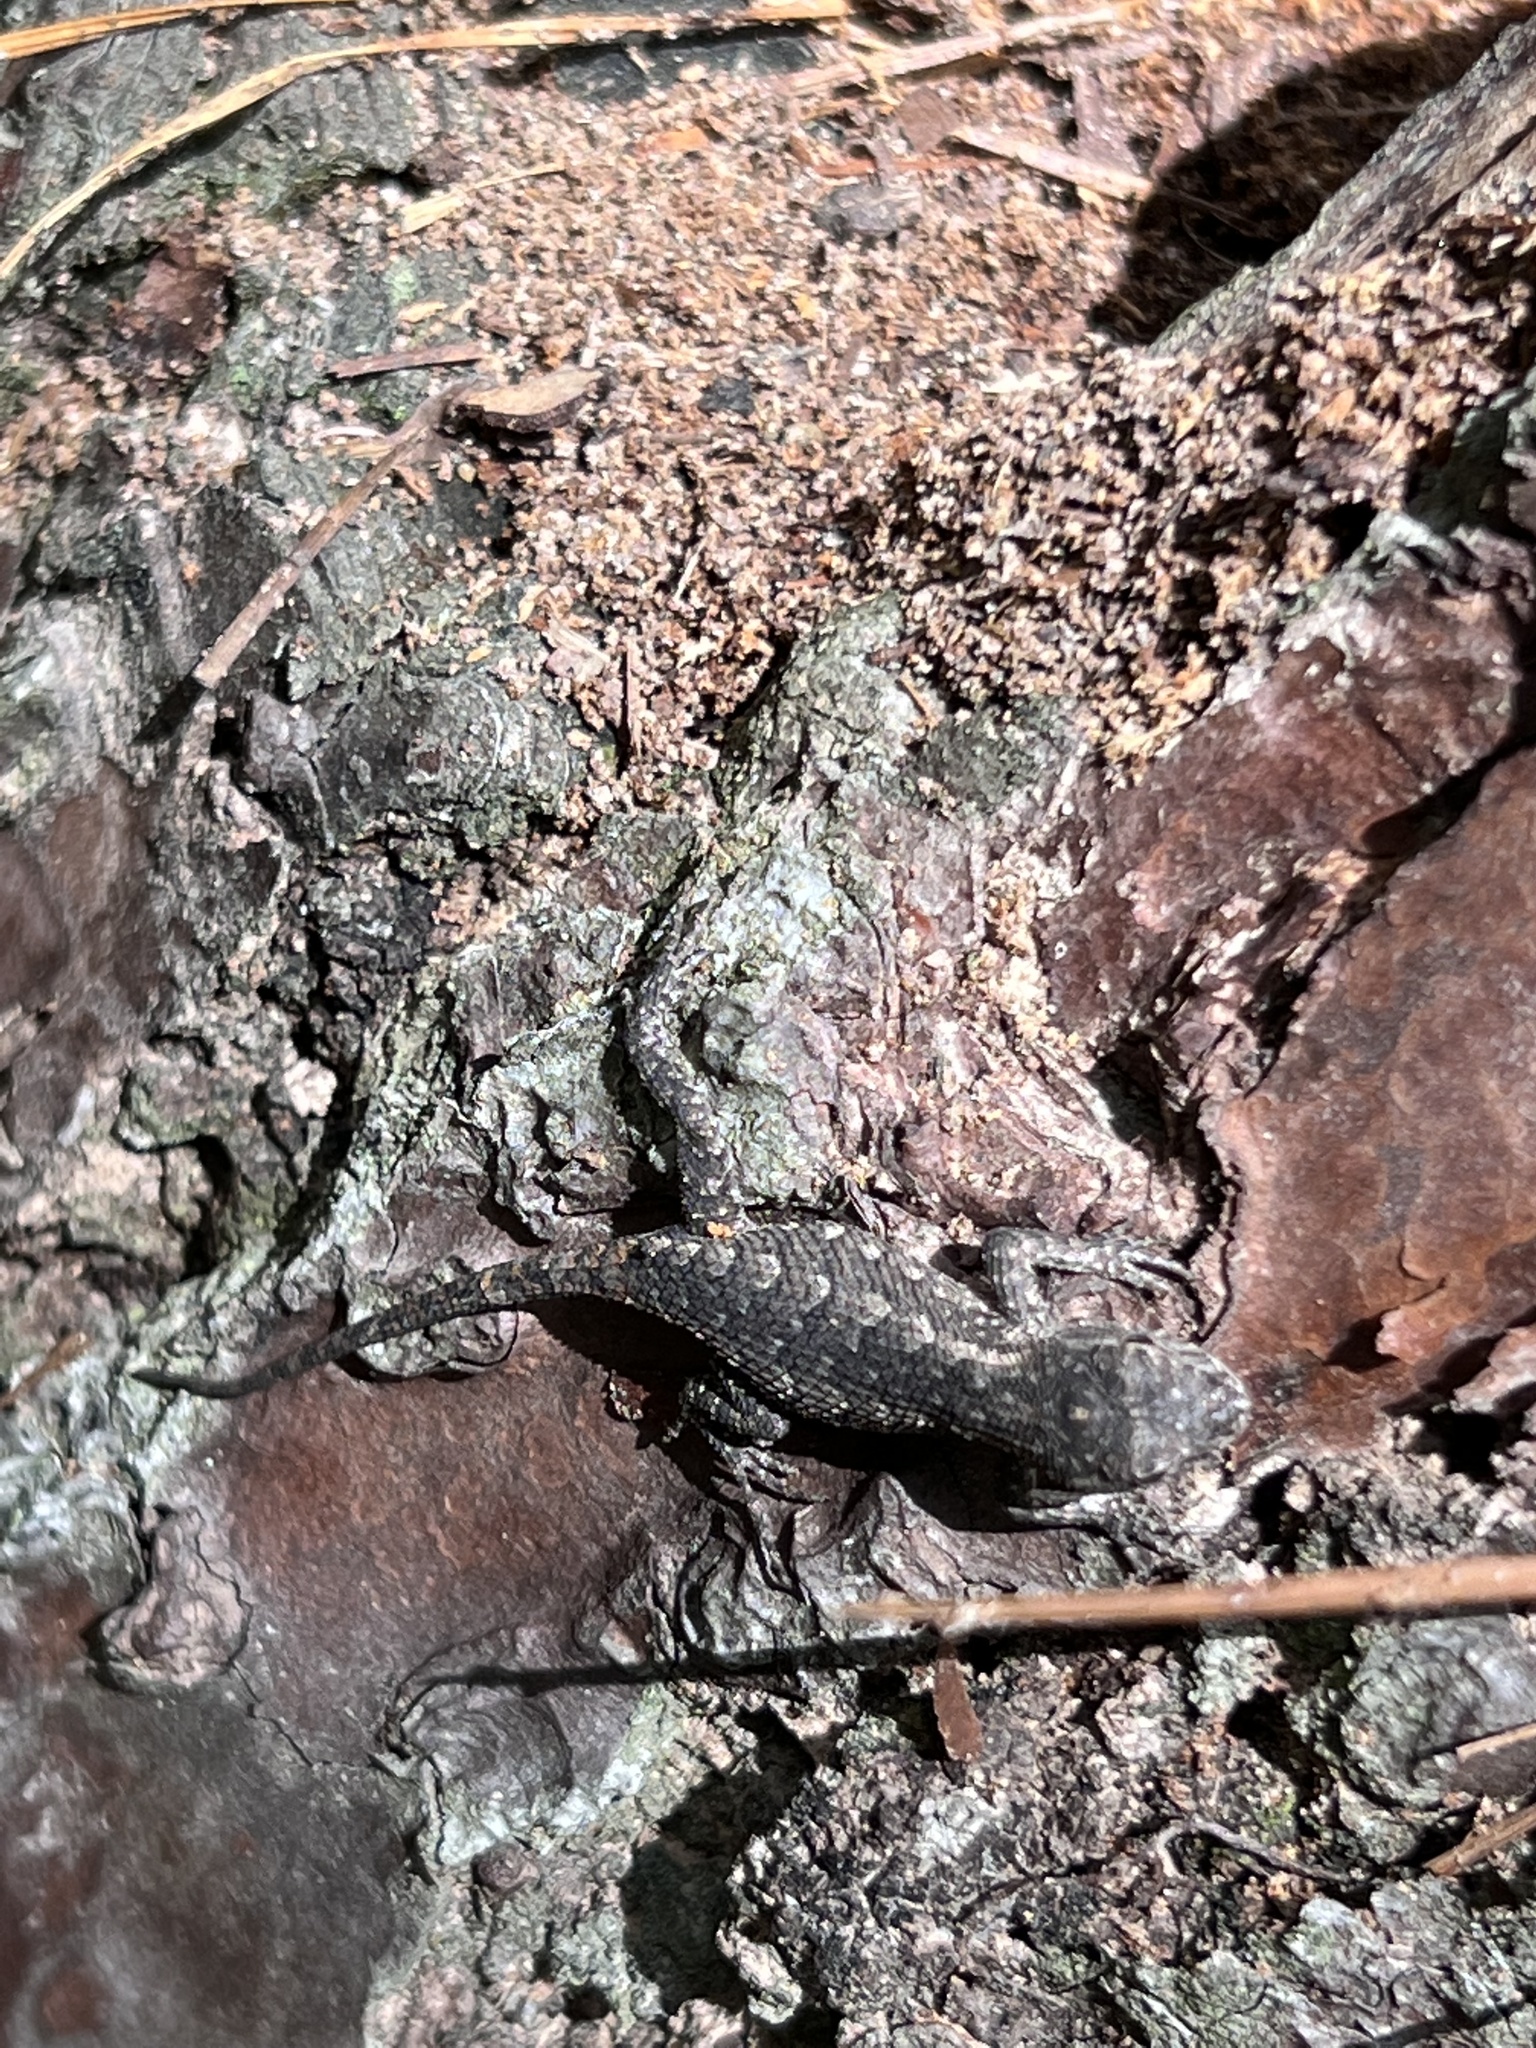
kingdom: Animalia
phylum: Chordata
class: Squamata
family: Phrynosomatidae
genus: Sceloporus
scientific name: Sceloporus consobrinus
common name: Southern prairie lizard
